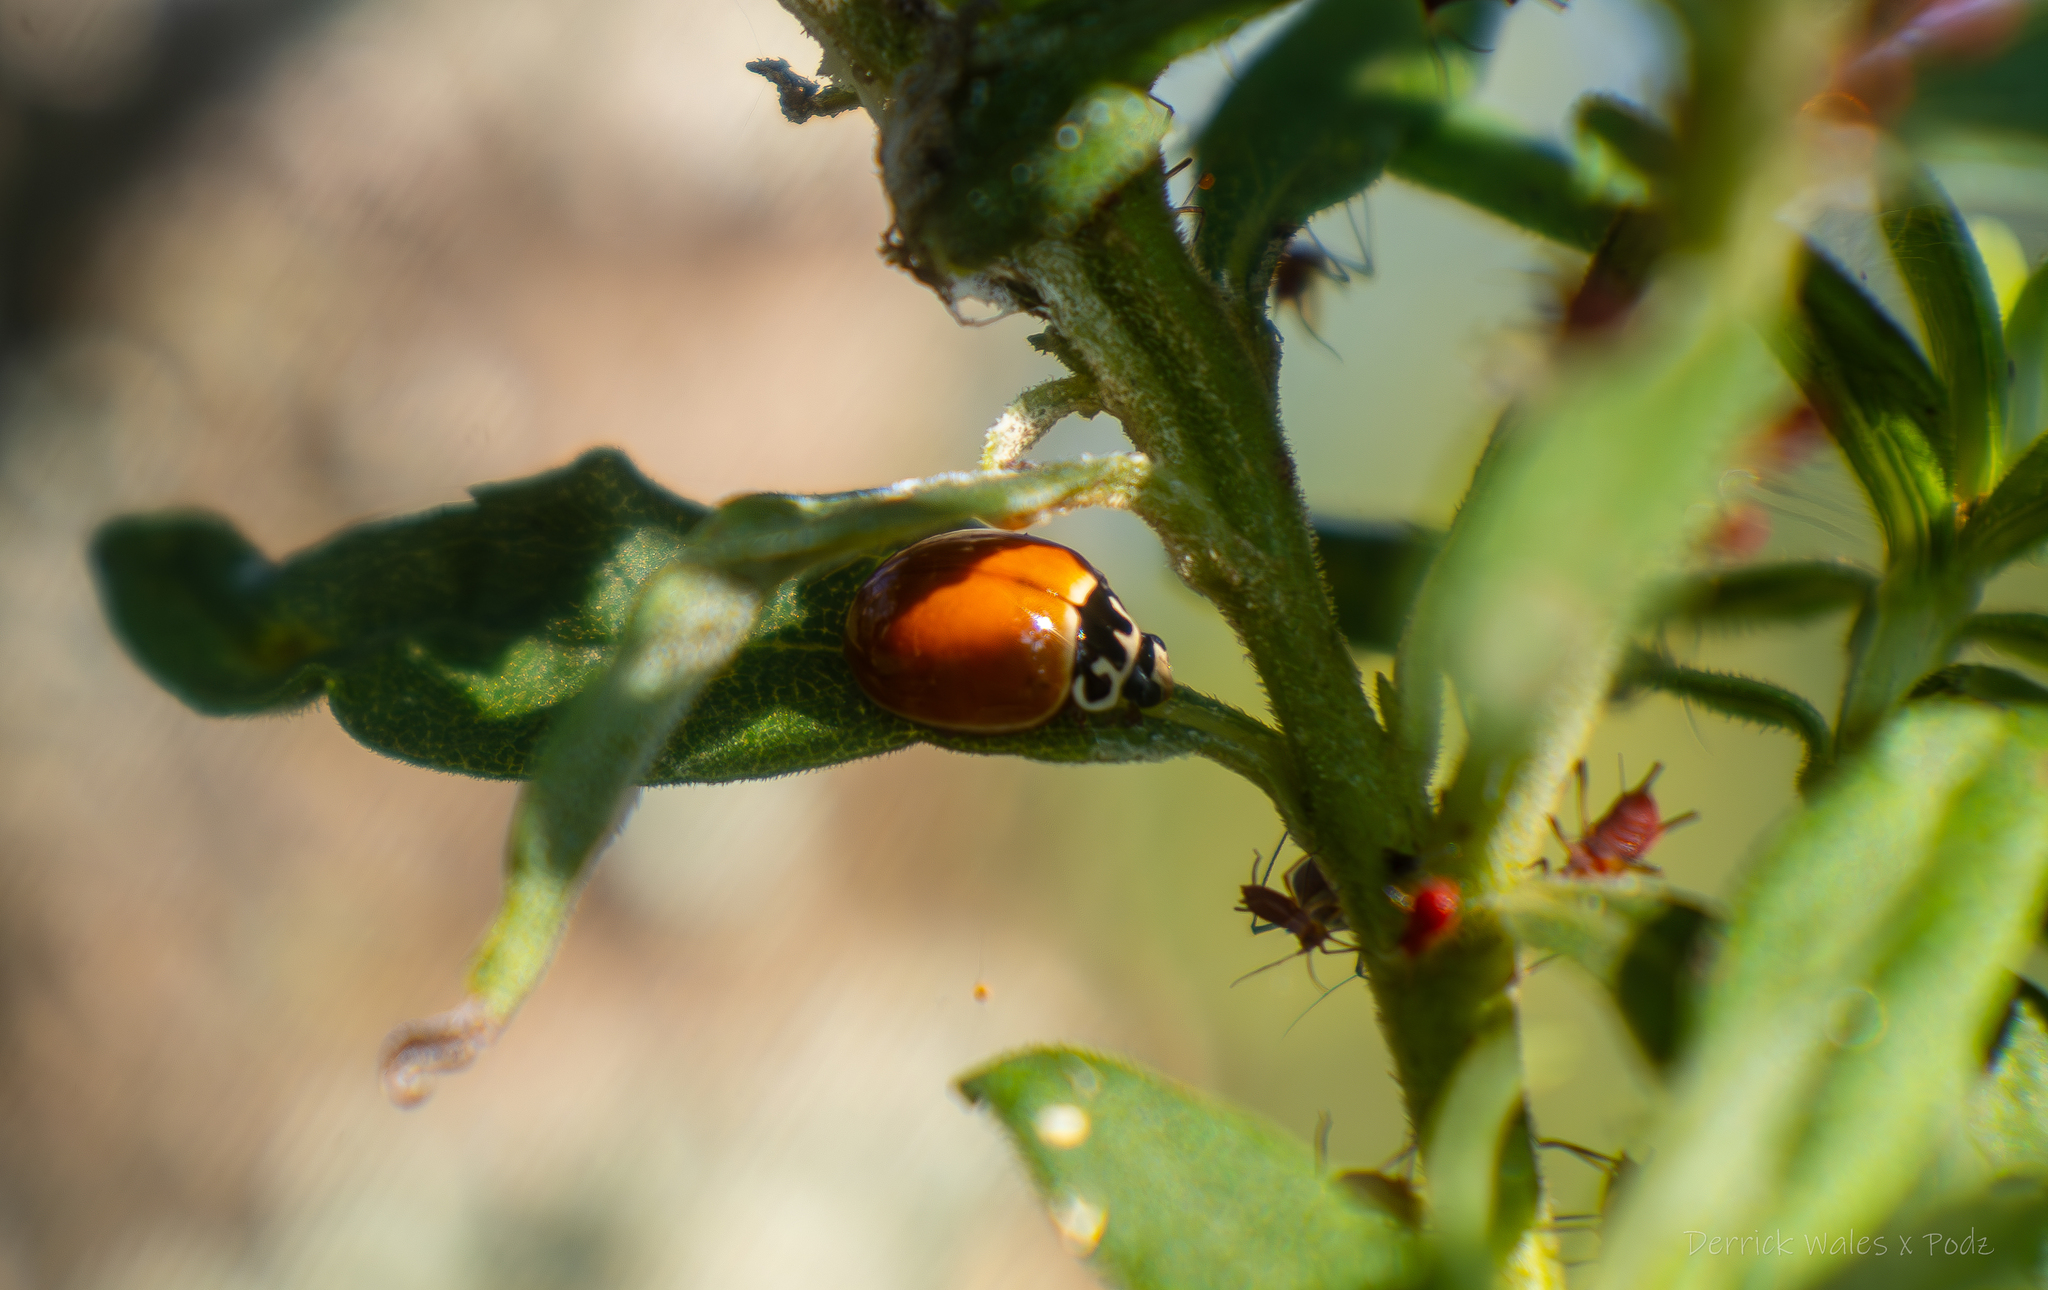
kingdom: Animalia
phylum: Arthropoda
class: Insecta
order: Coleoptera
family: Coccinellidae
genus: Cycloneda
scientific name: Cycloneda munda
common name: Polished lady beetle
